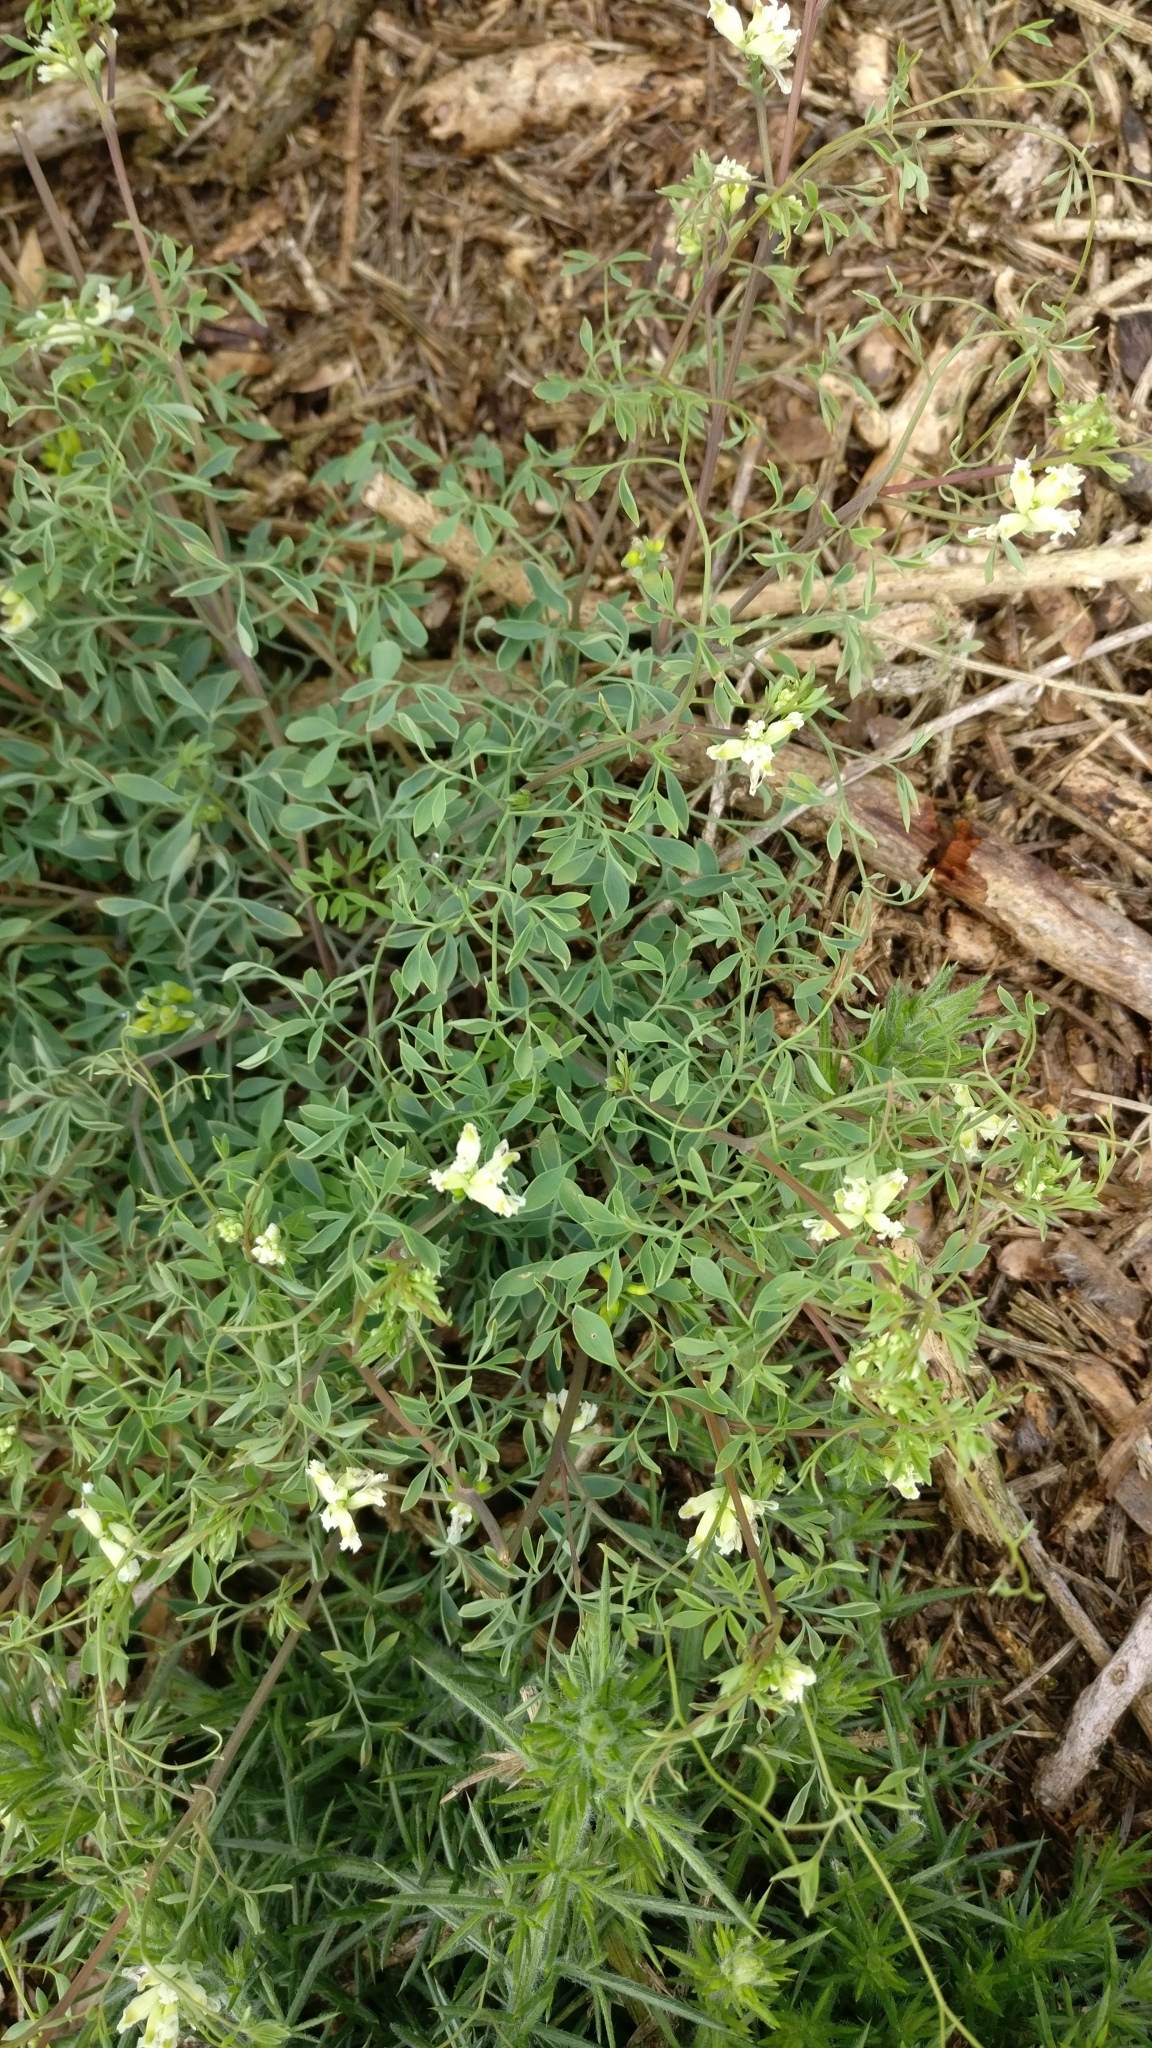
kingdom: Plantae
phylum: Tracheophyta
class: Magnoliopsida
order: Ranunculales
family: Papaveraceae
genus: Ceratocapnos
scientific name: Ceratocapnos claviculata
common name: Climbing corydalis
